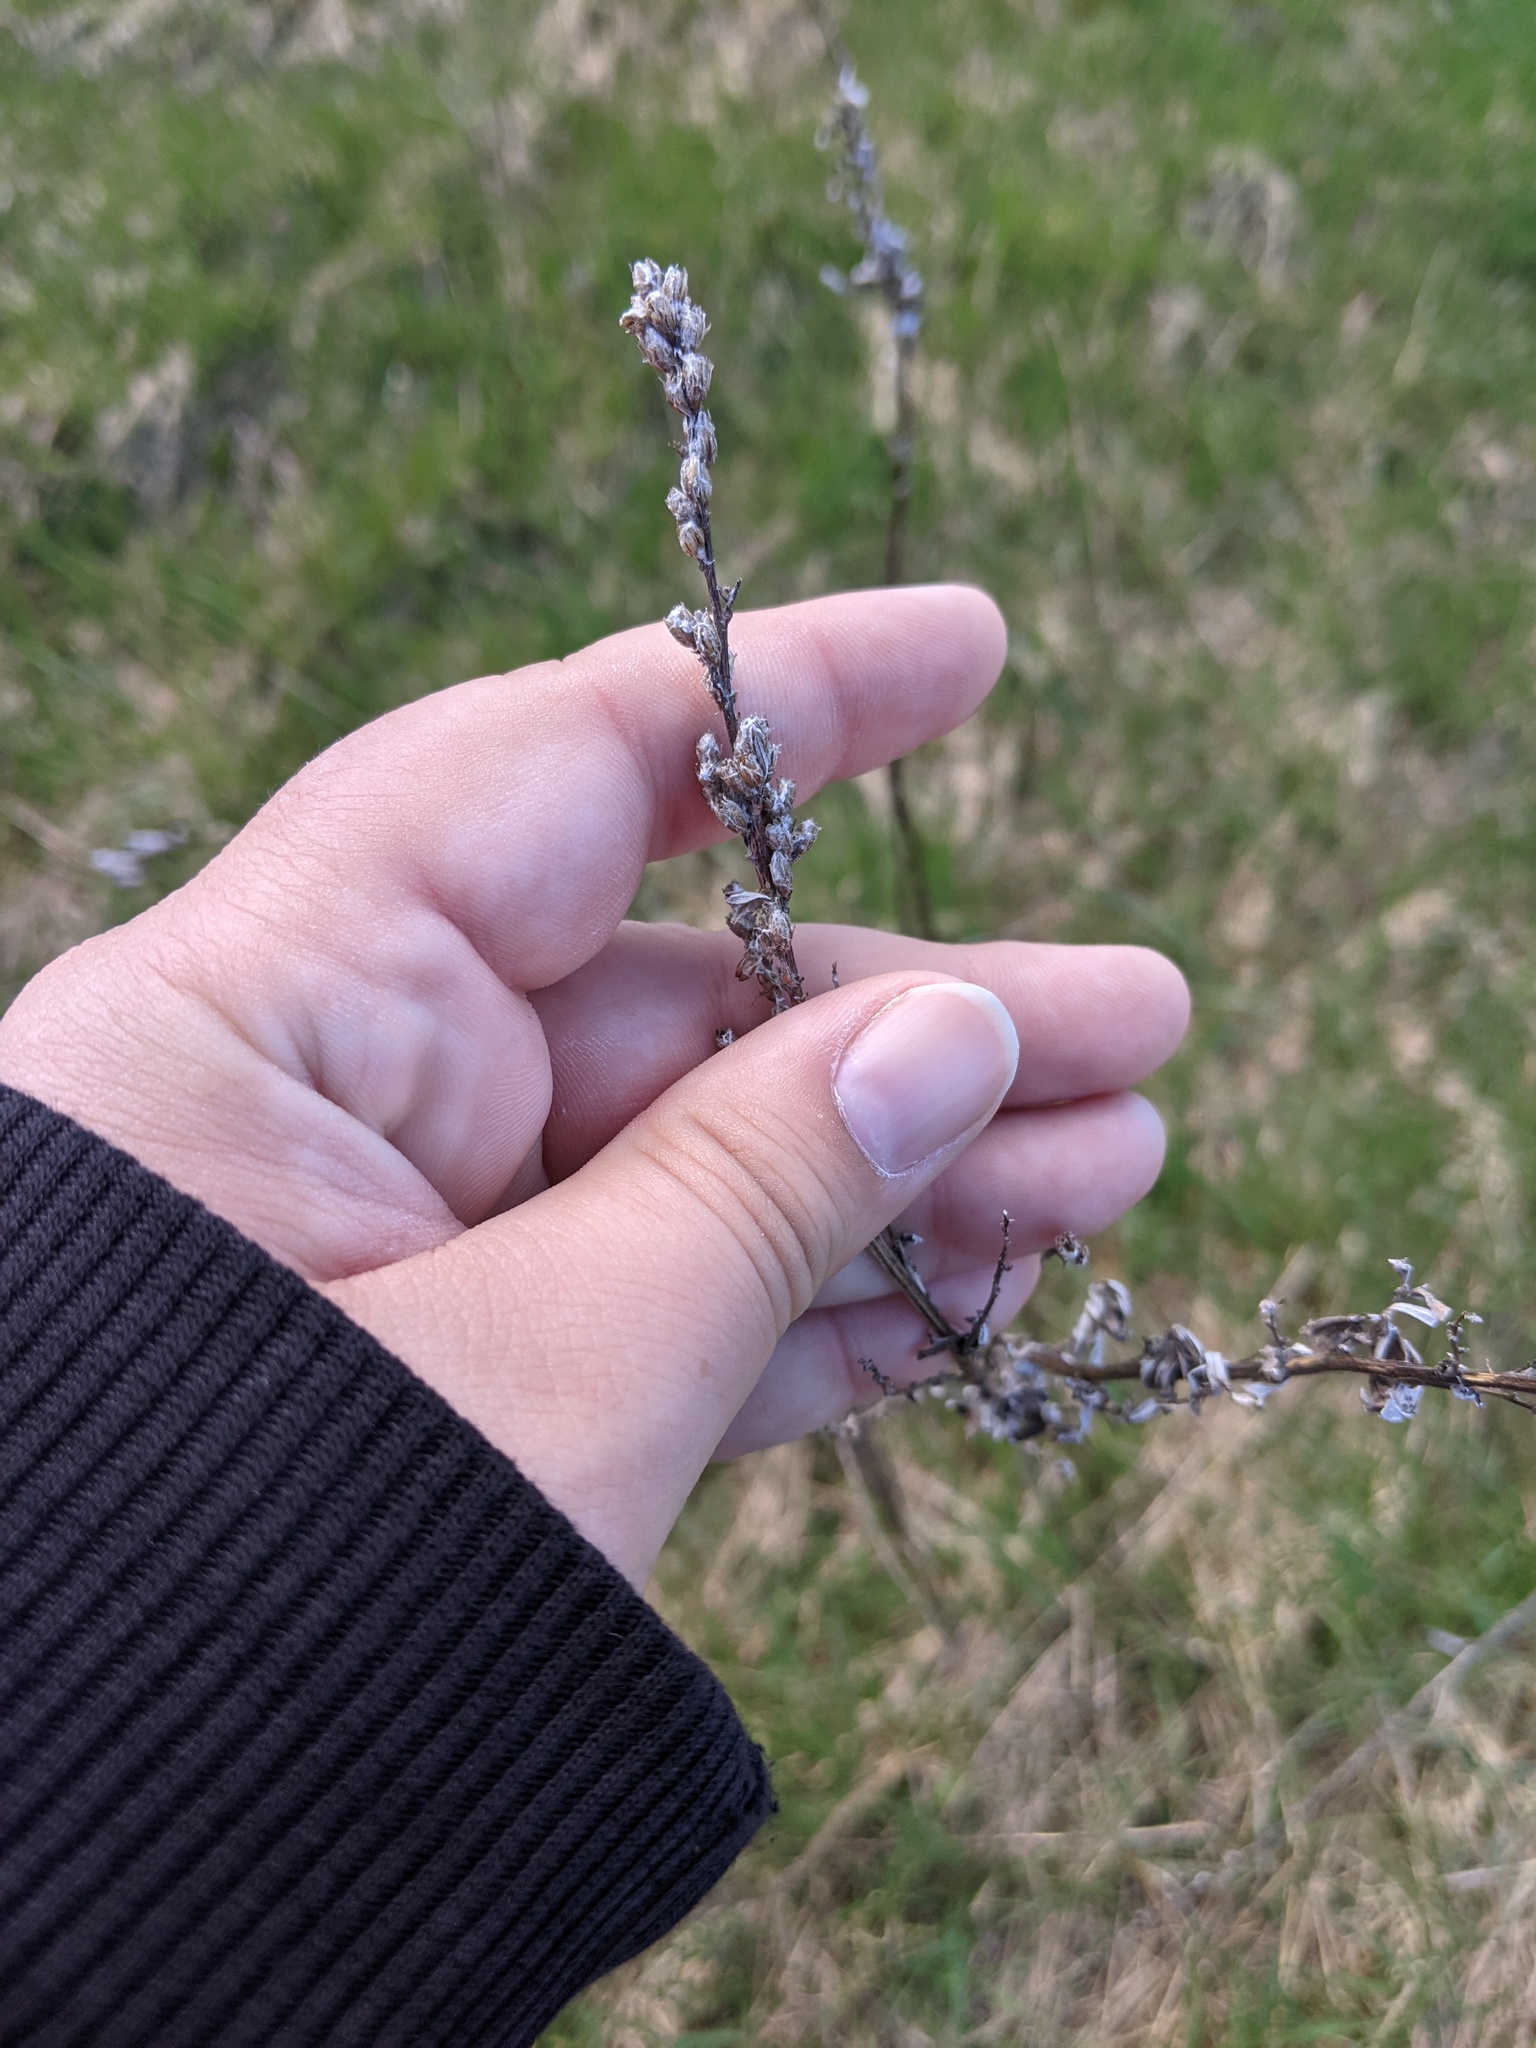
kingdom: Plantae
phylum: Tracheophyta
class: Magnoliopsida
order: Asterales
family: Asteraceae
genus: Artemisia
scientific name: Artemisia vulgaris
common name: Mugwort
